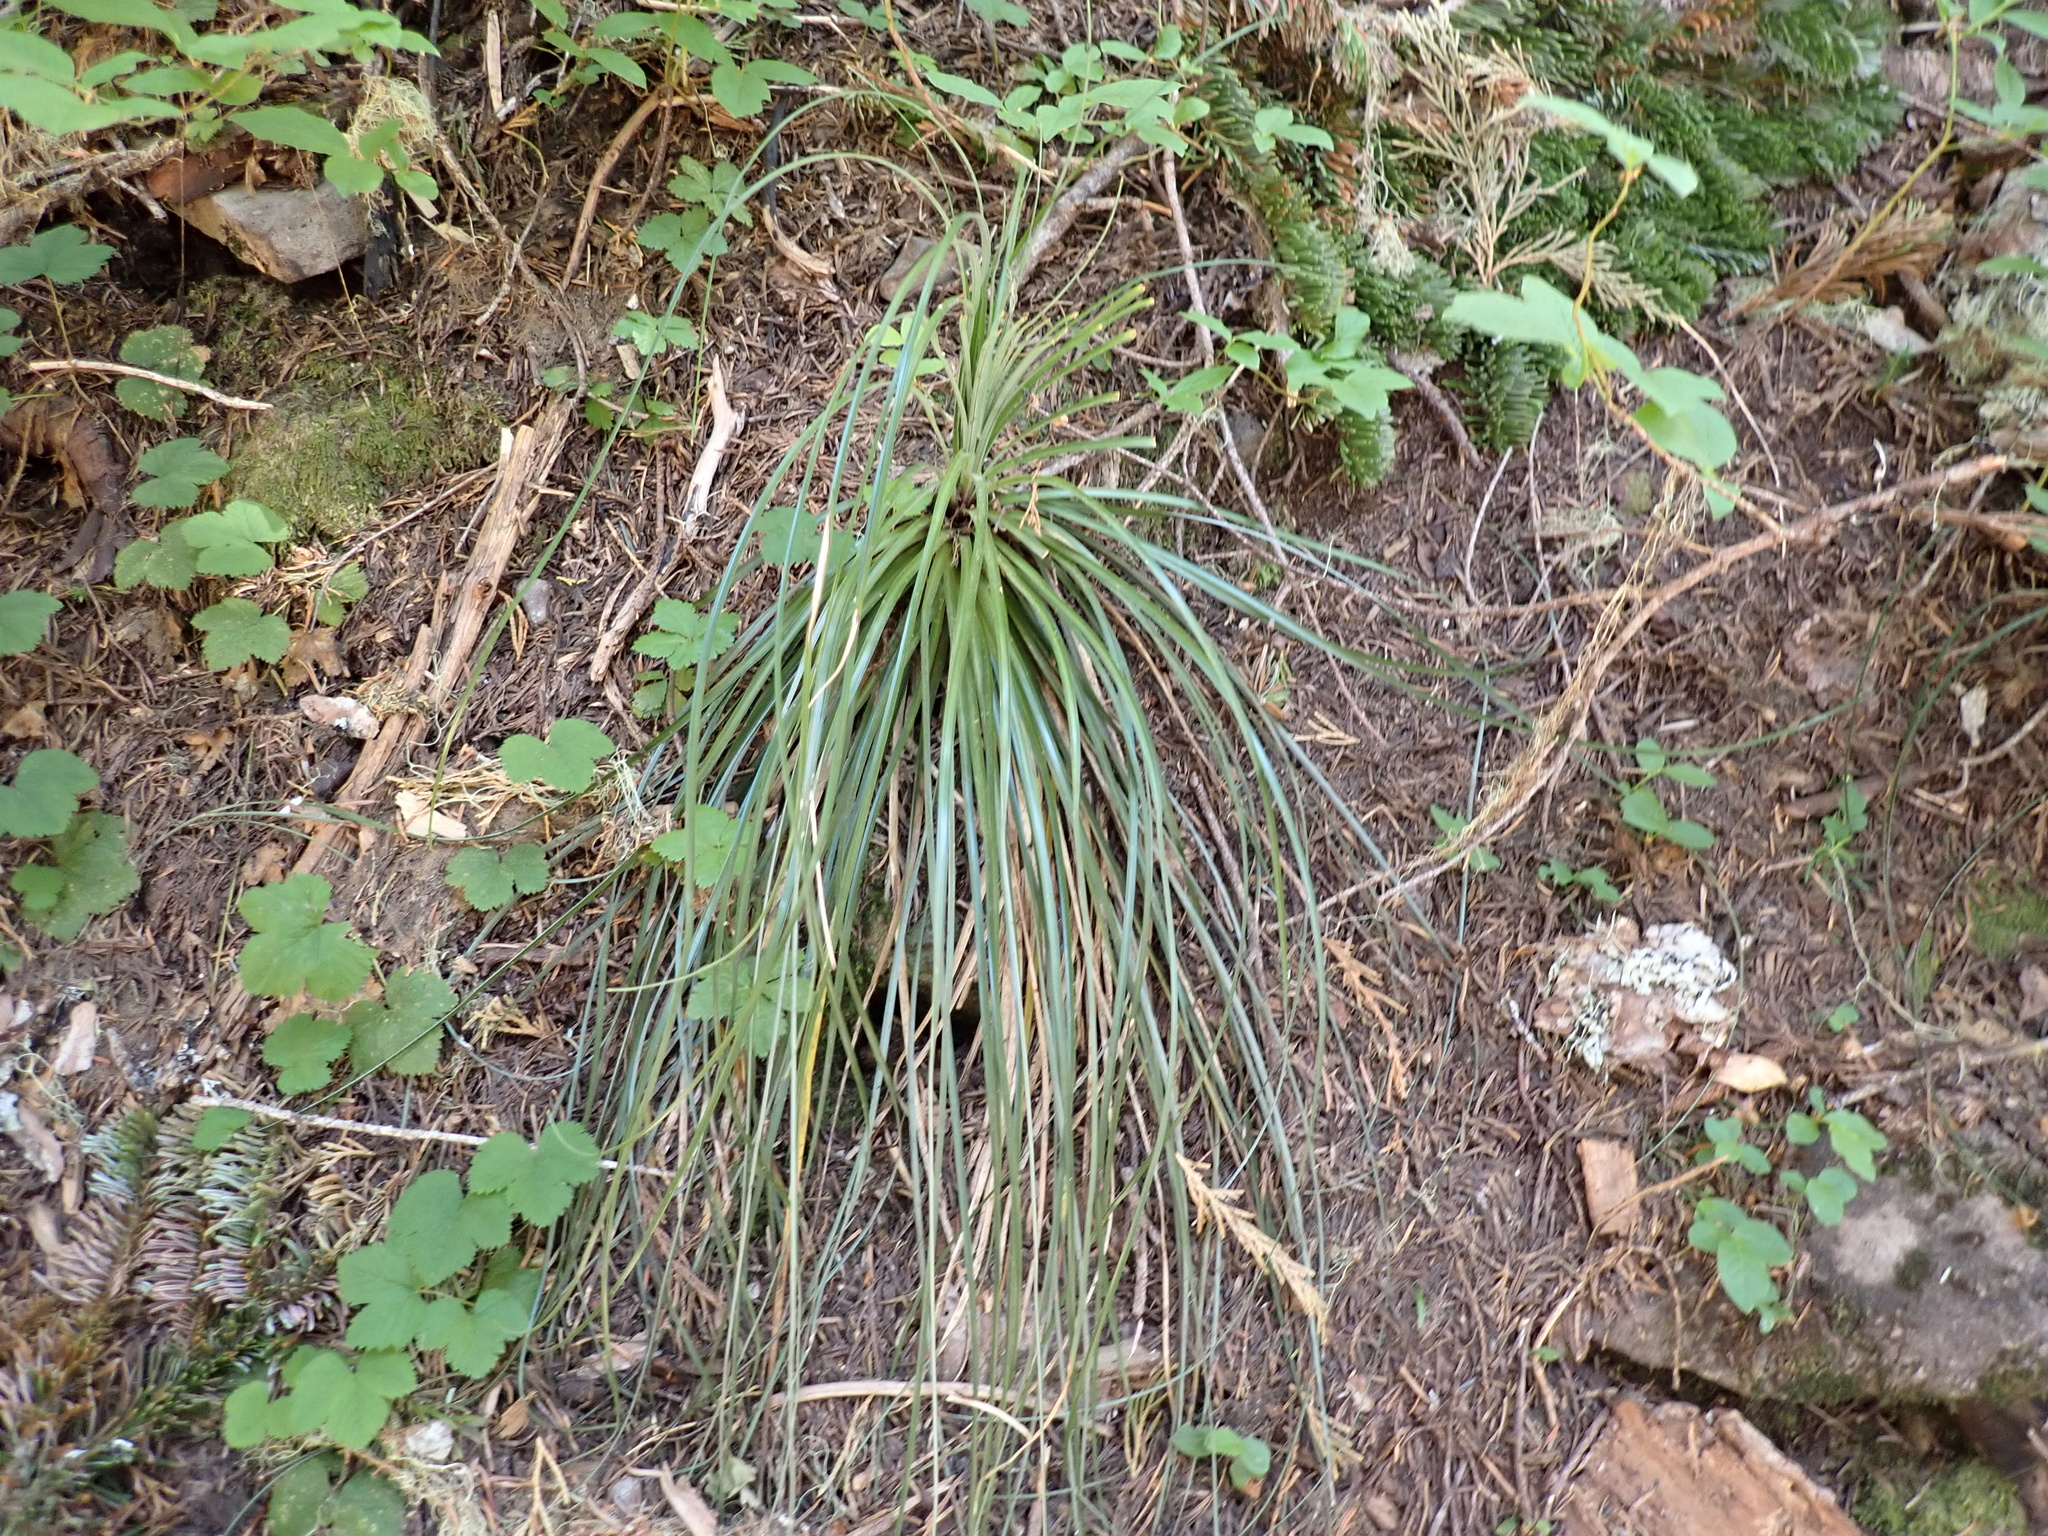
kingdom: Plantae
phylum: Tracheophyta
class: Liliopsida
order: Liliales
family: Melanthiaceae
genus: Xerophyllum
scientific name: Xerophyllum tenax
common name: Bear-grass
